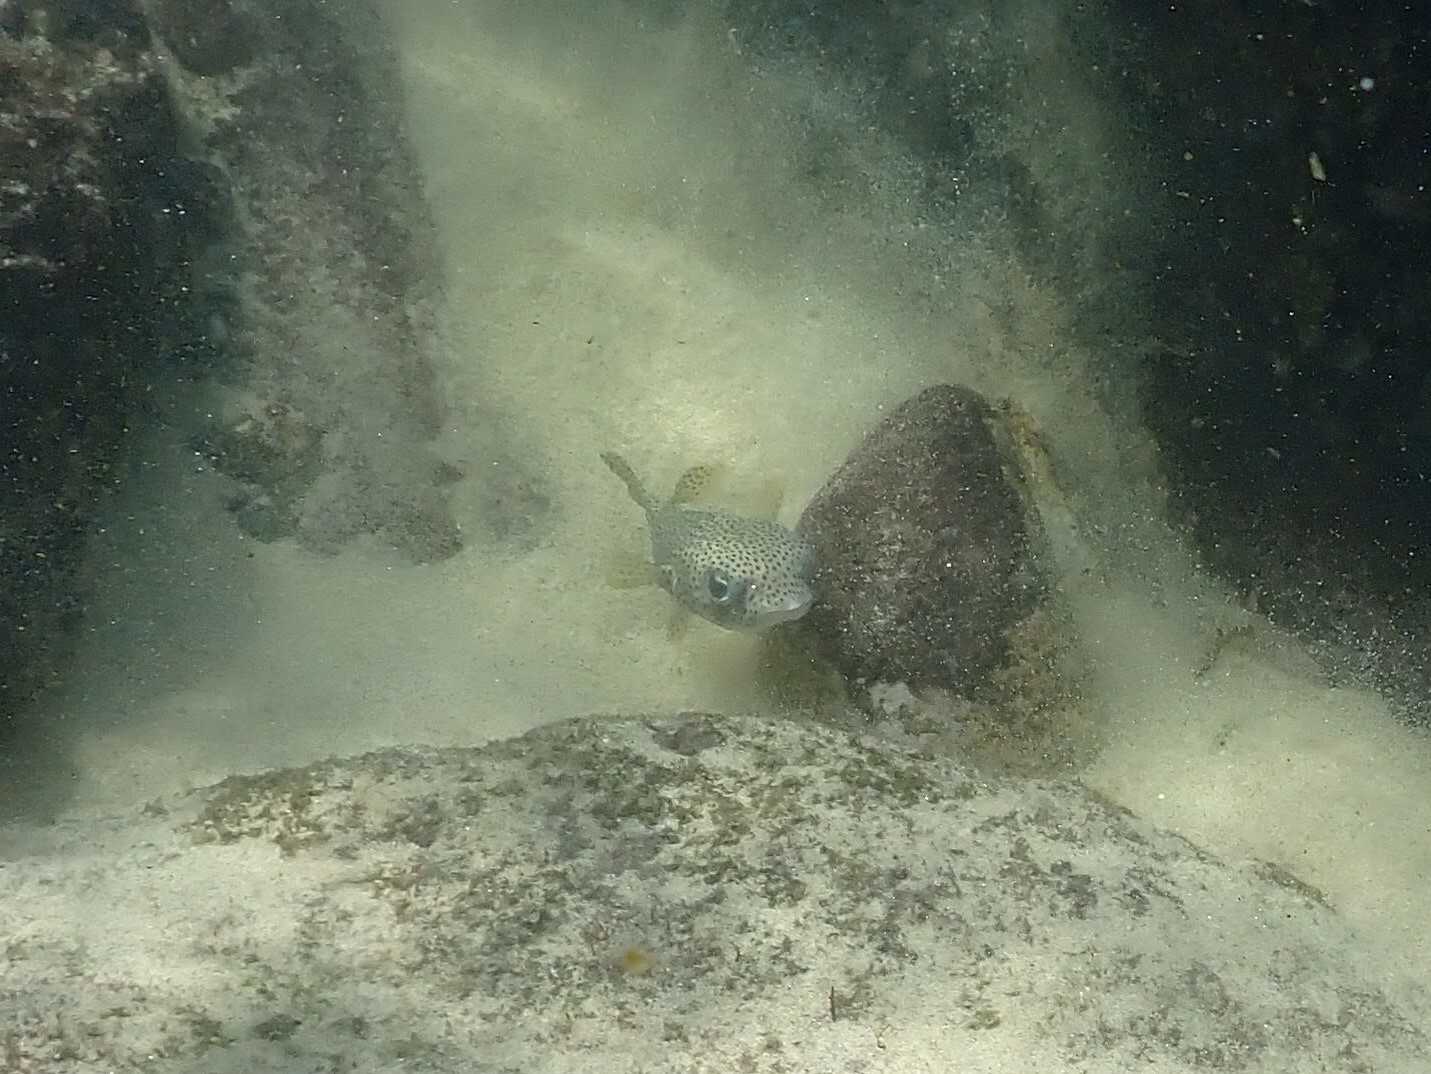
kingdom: Animalia
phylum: Chordata
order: Tetraodontiformes
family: Diodontidae
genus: Diodon
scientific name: Diodon hystrix
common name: Giant porcupinefish
